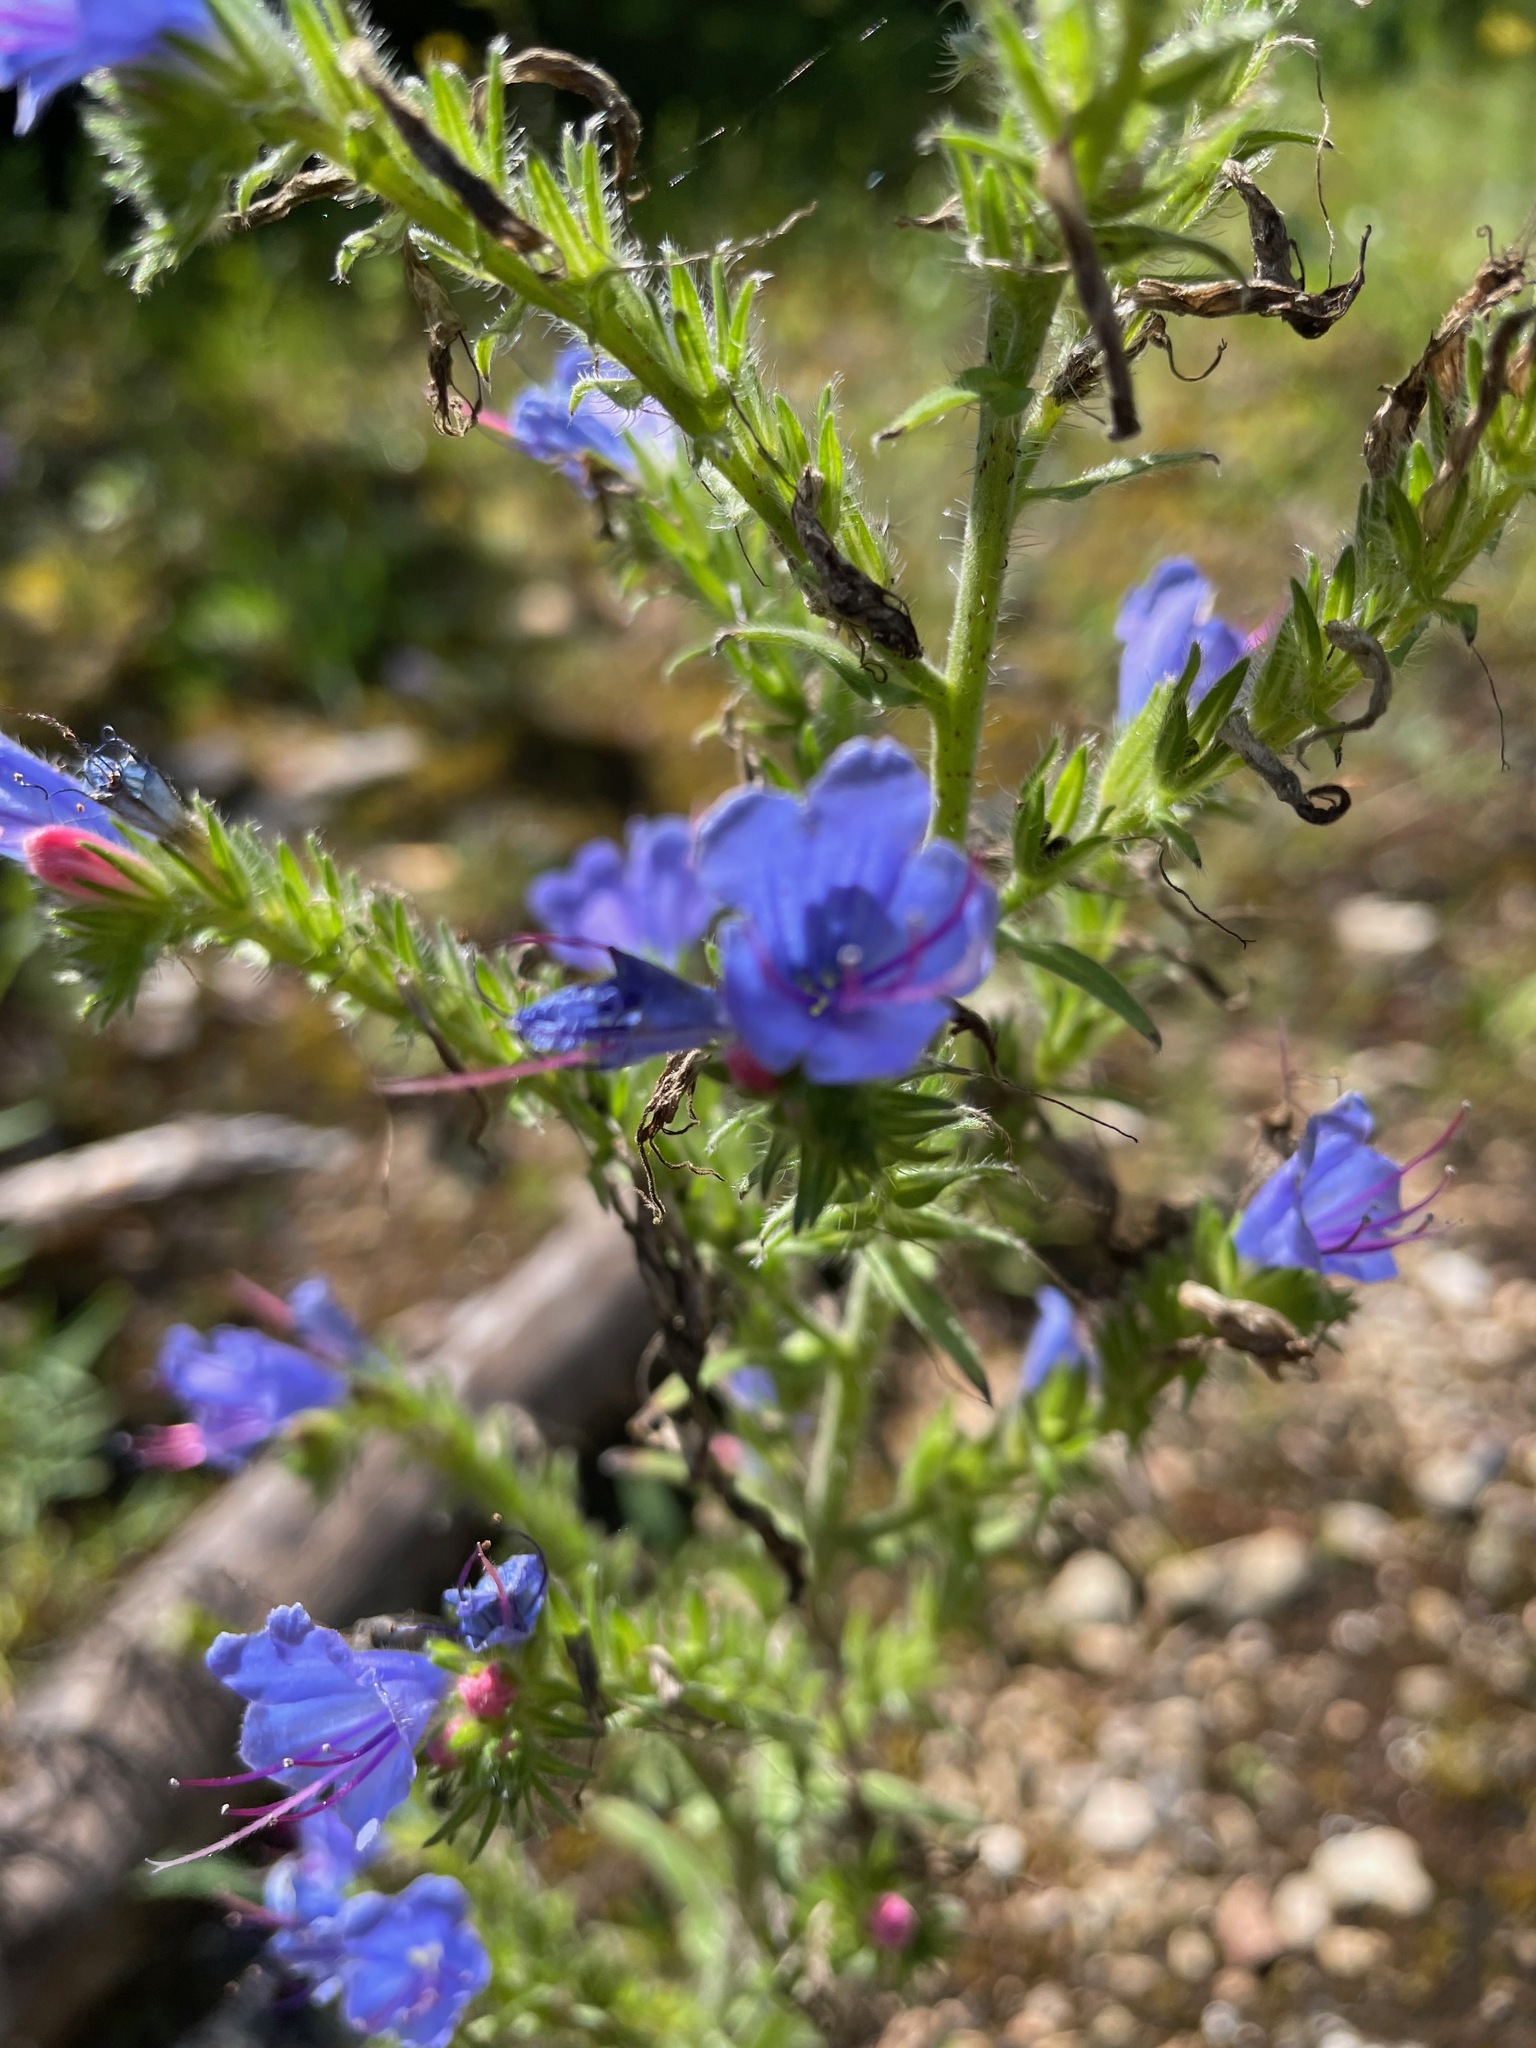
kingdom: Plantae
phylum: Tracheophyta
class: Magnoliopsida
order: Boraginales
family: Boraginaceae
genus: Echium
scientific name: Echium vulgare
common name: Common viper's bugloss
